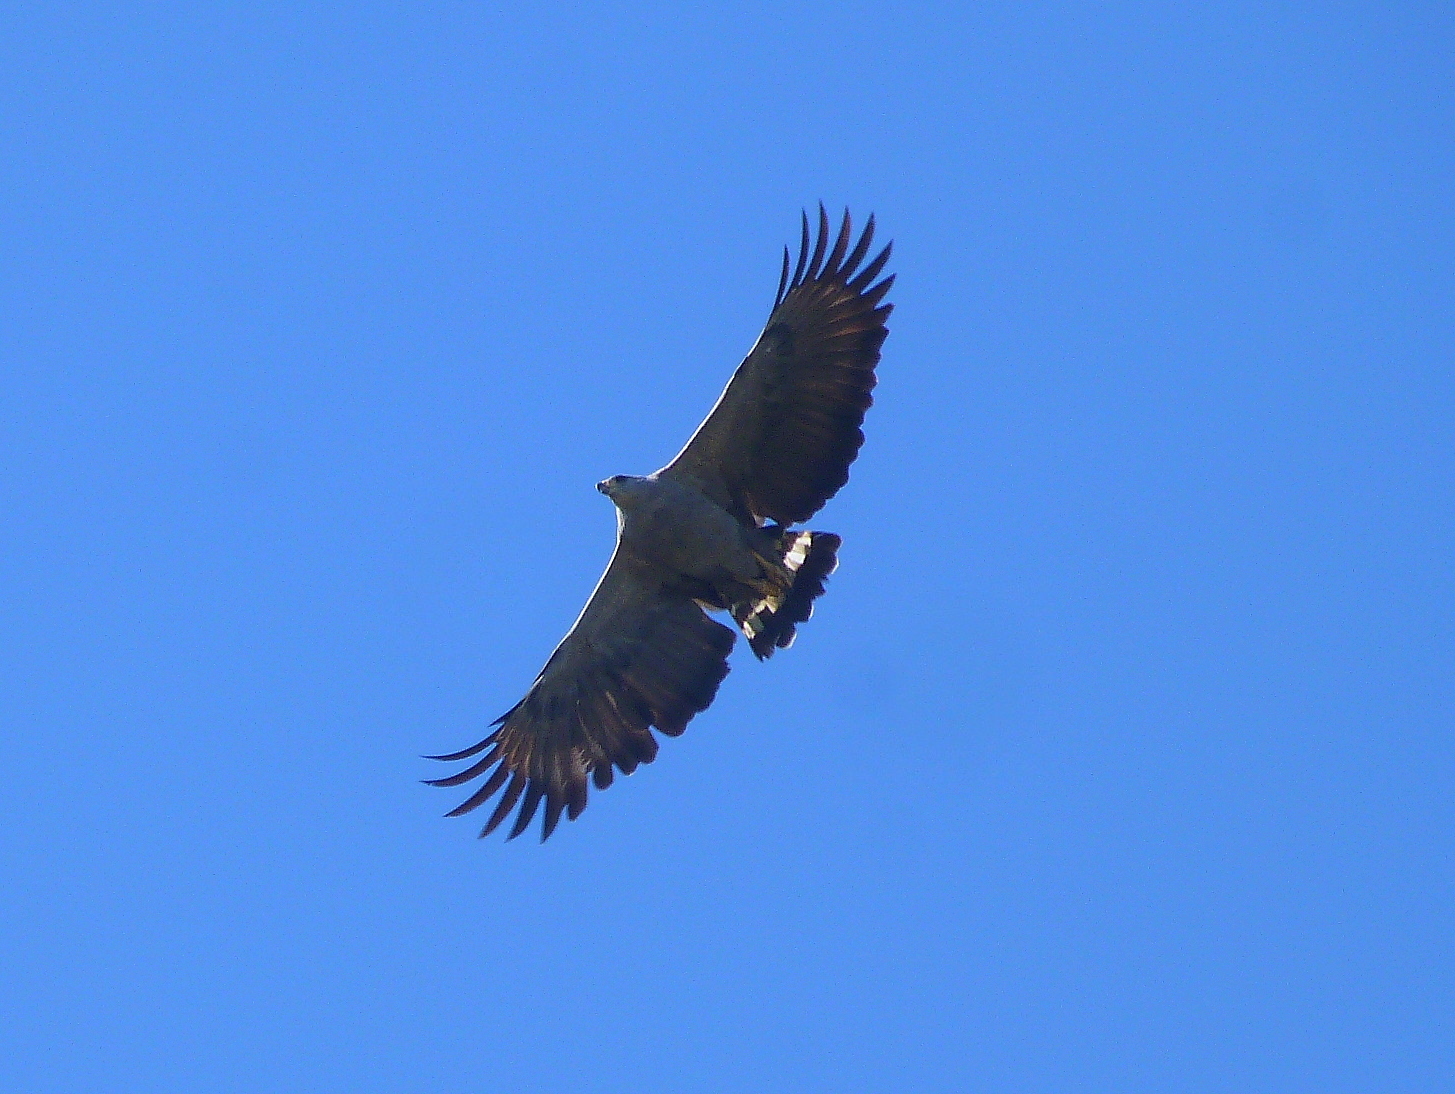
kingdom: Animalia
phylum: Chordata
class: Aves
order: Accipitriformes
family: Accipitridae
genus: Harpyhaliaetus
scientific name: Harpyhaliaetus coronatus
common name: Crowned solitary eagle
